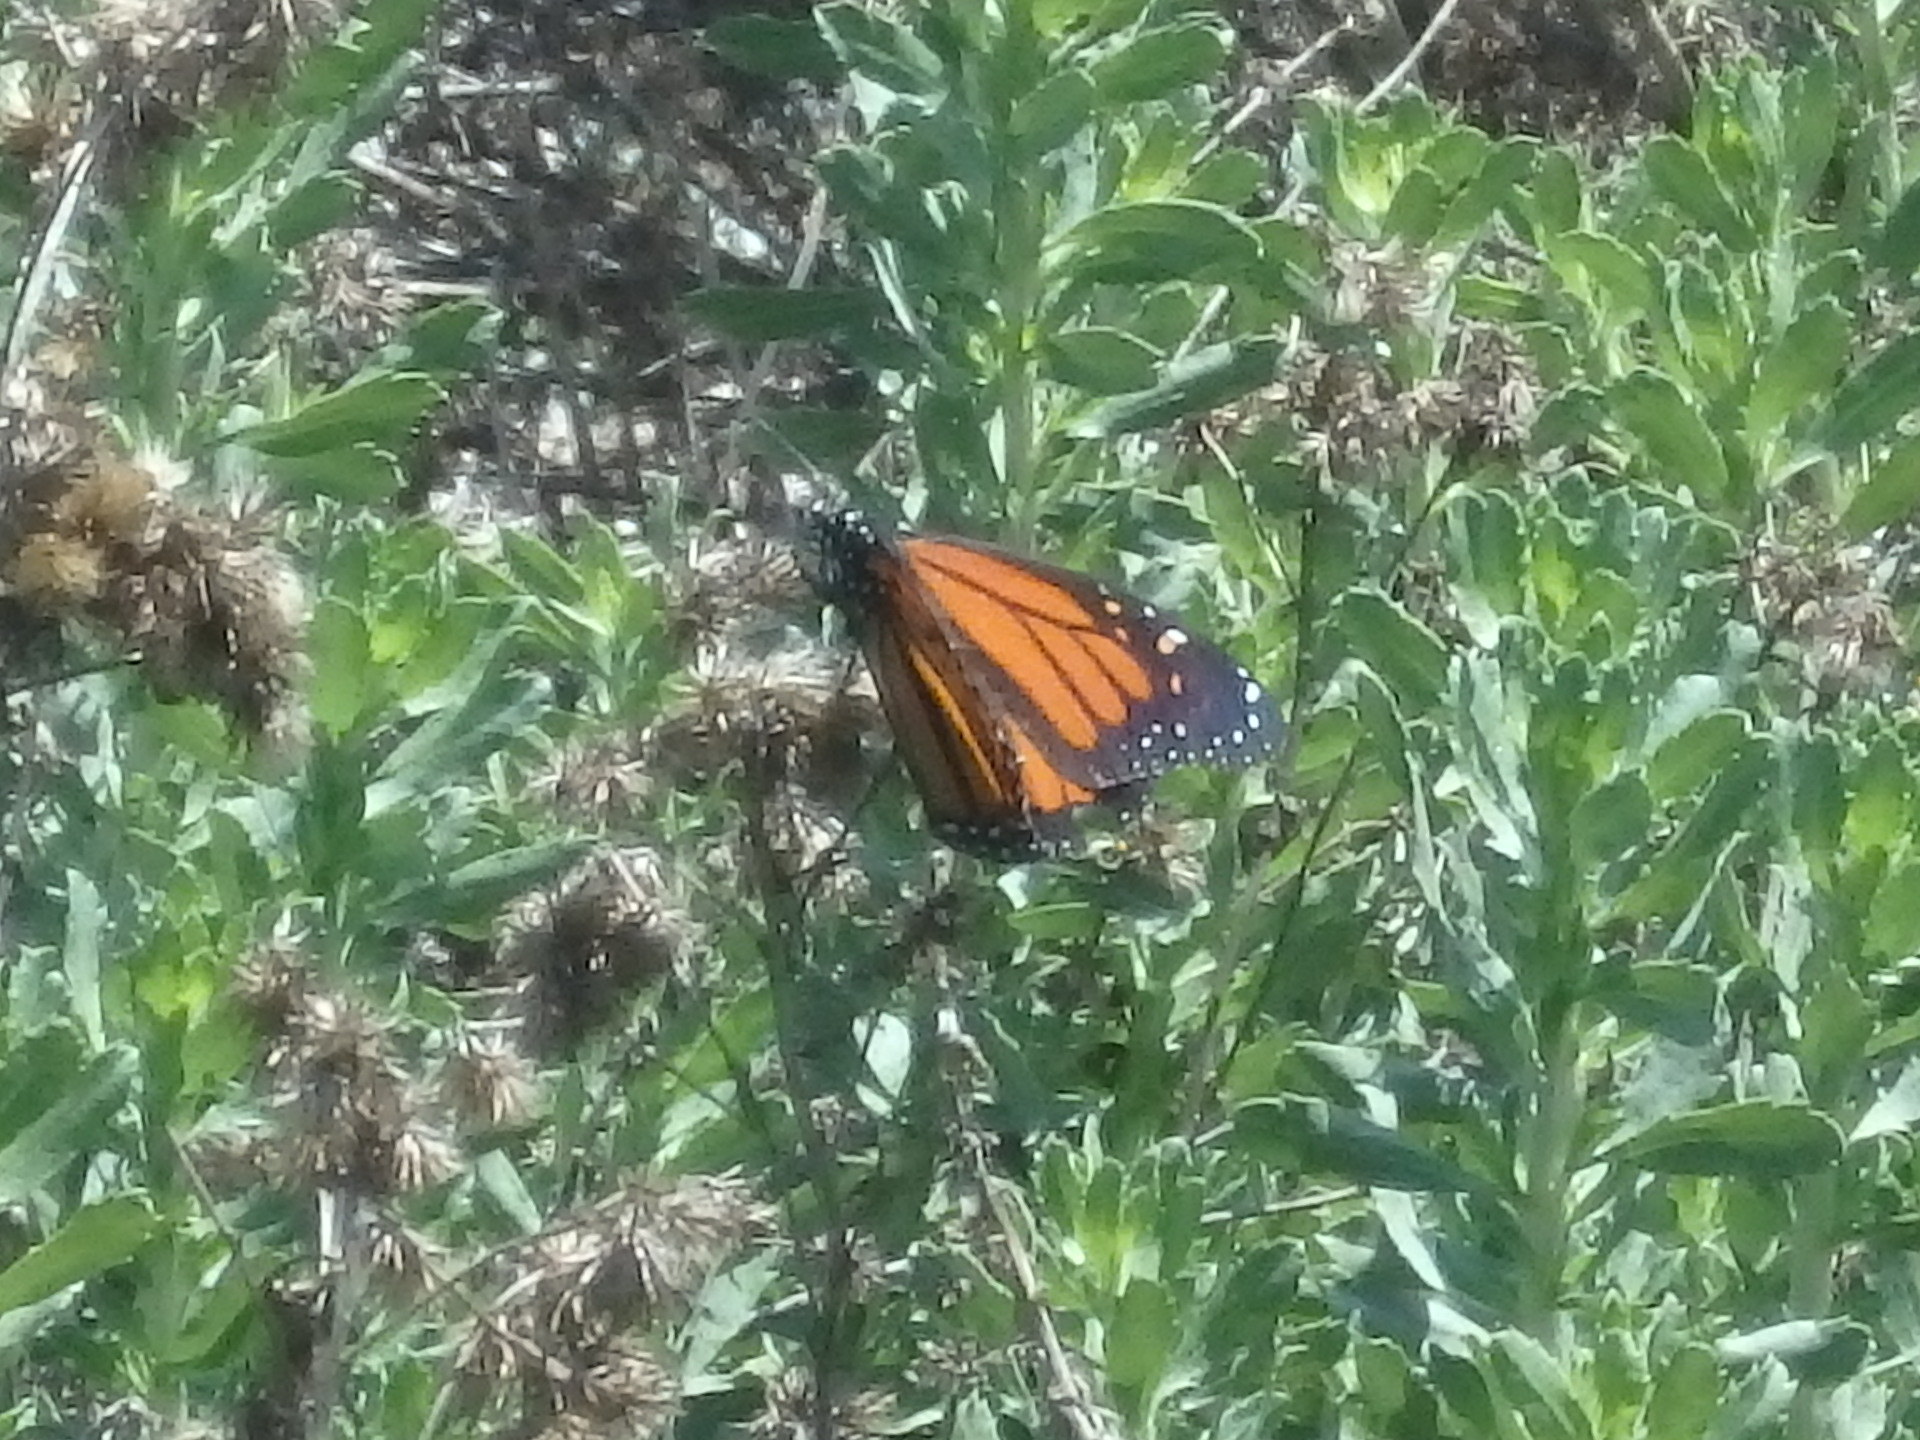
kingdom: Animalia
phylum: Arthropoda
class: Insecta
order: Lepidoptera
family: Nymphalidae
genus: Danaus
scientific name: Danaus plexippus
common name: Monarch
